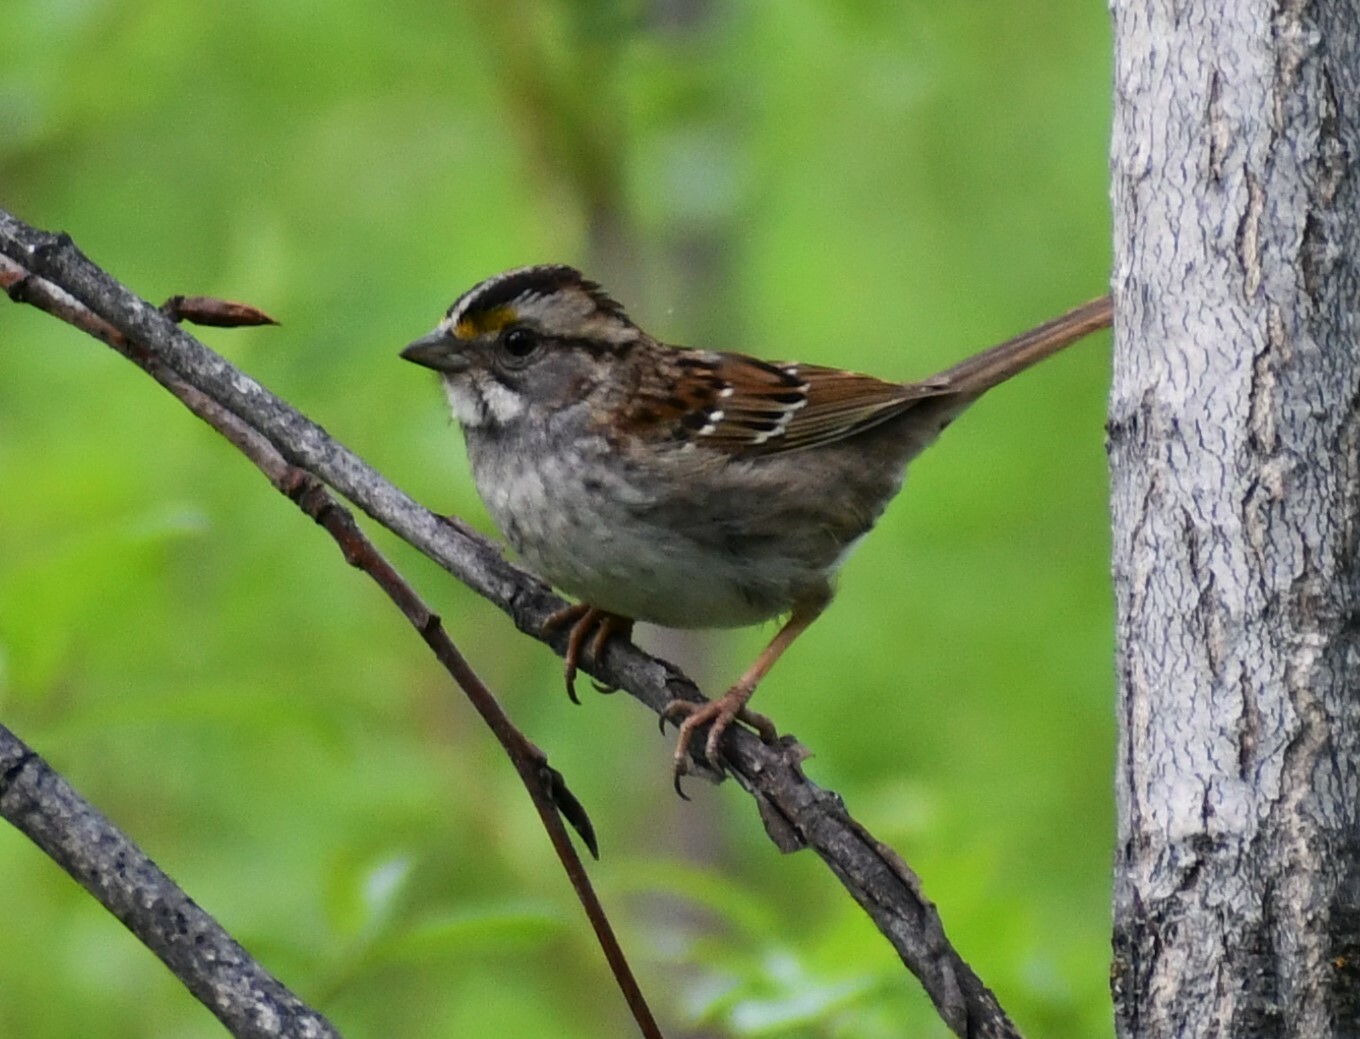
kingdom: Animalia
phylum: Chordata
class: Aves
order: Passeriformes
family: Passerellidae
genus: Zonotrichia
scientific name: Zonotrichia albicollis
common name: White-throated sparrow
